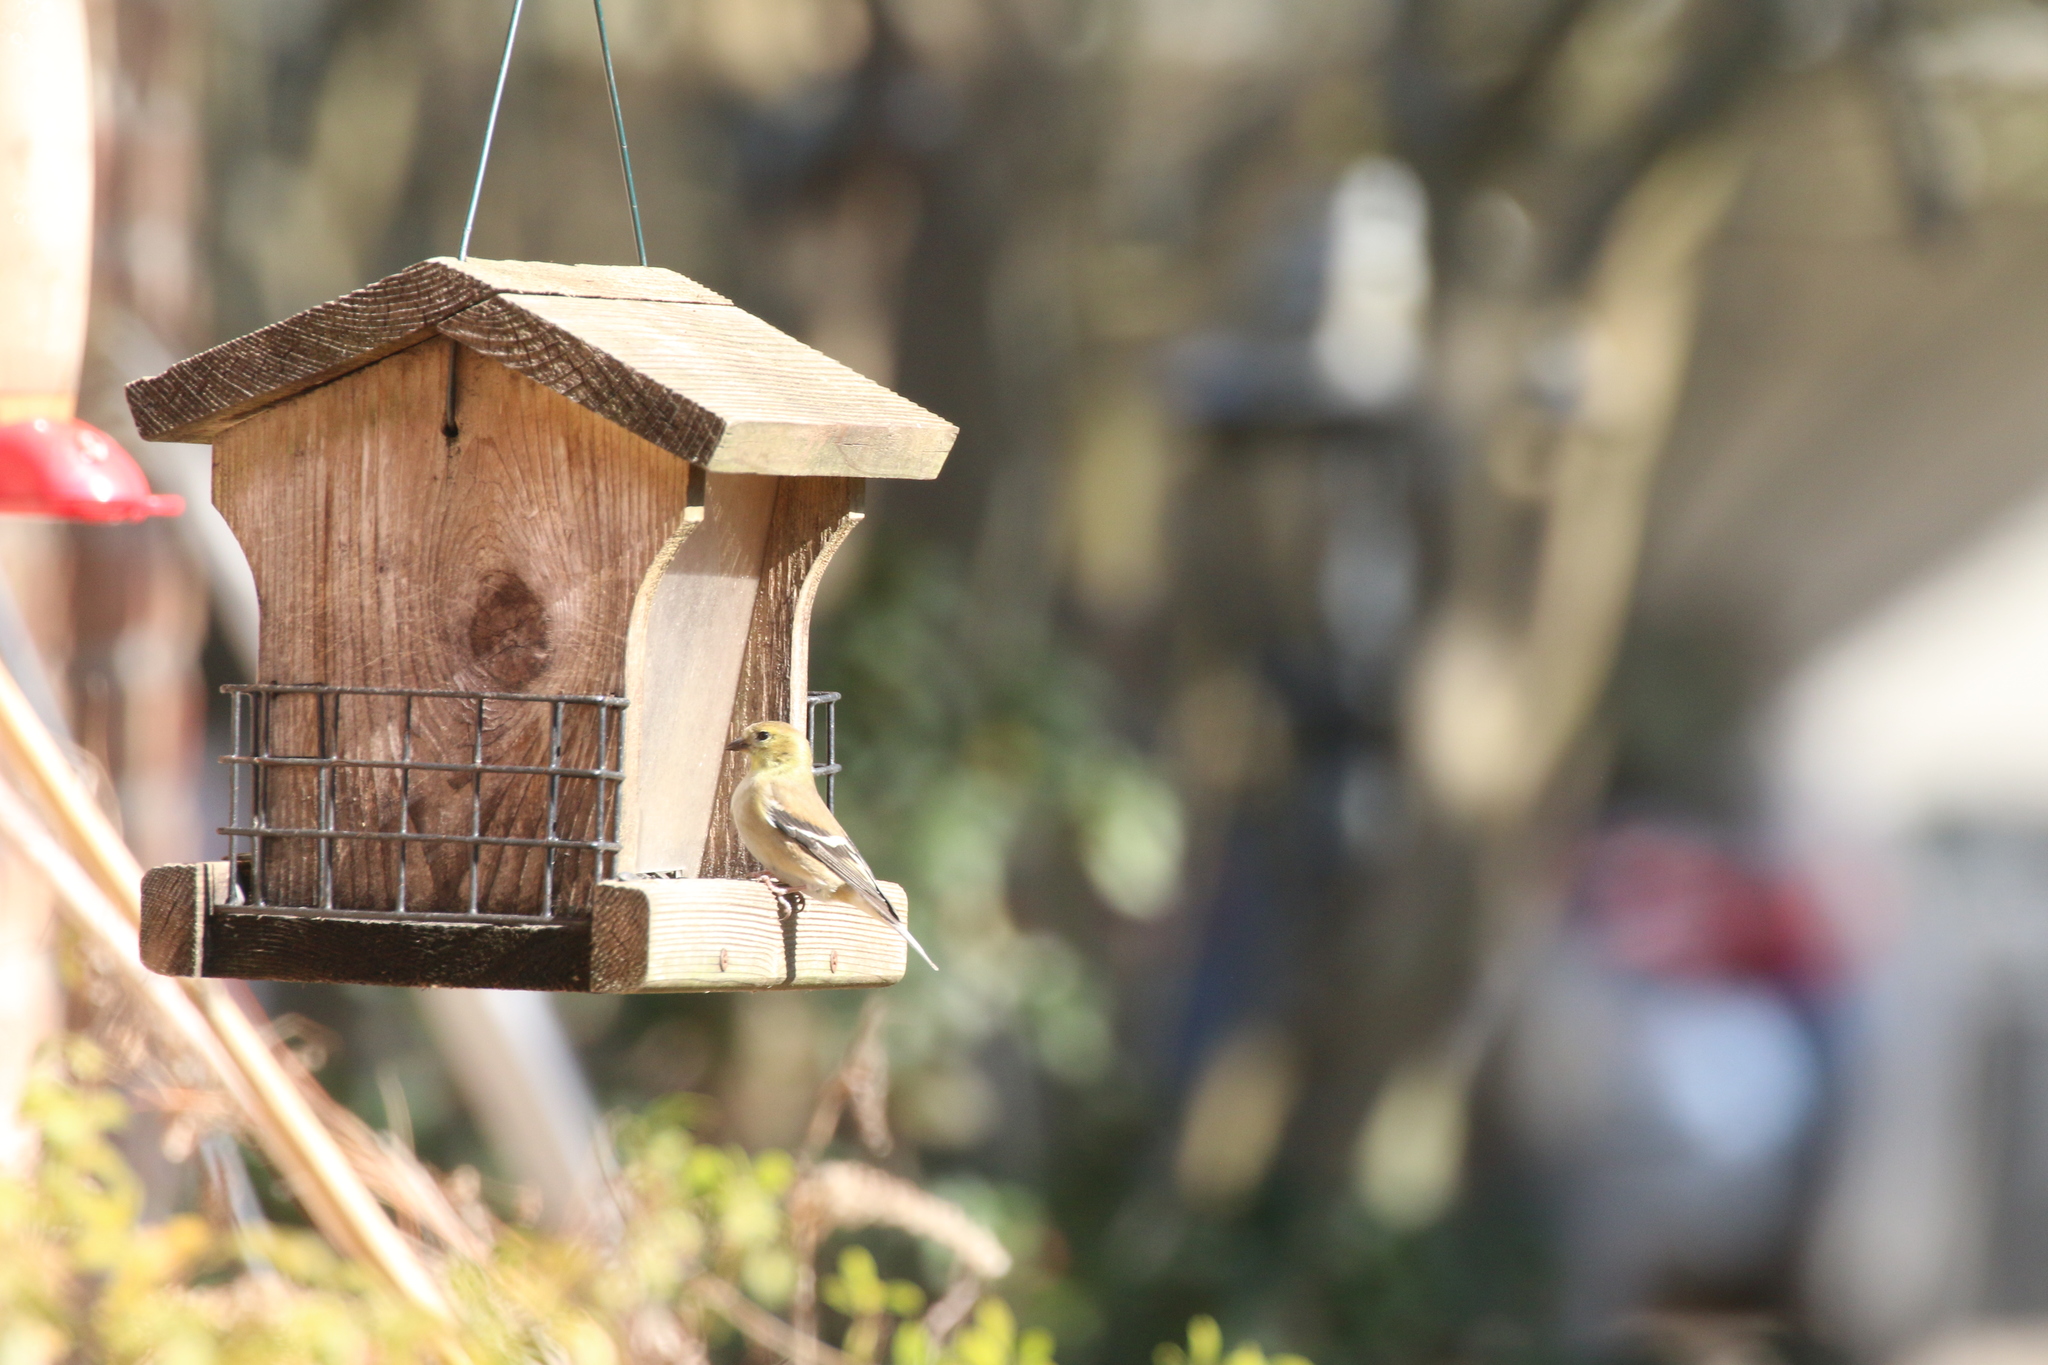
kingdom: Animalia
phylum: Chordata
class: Aves
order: Passeriformes
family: Fringillidae
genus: Spinus
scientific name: Spinus tristis
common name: American goldfinch
